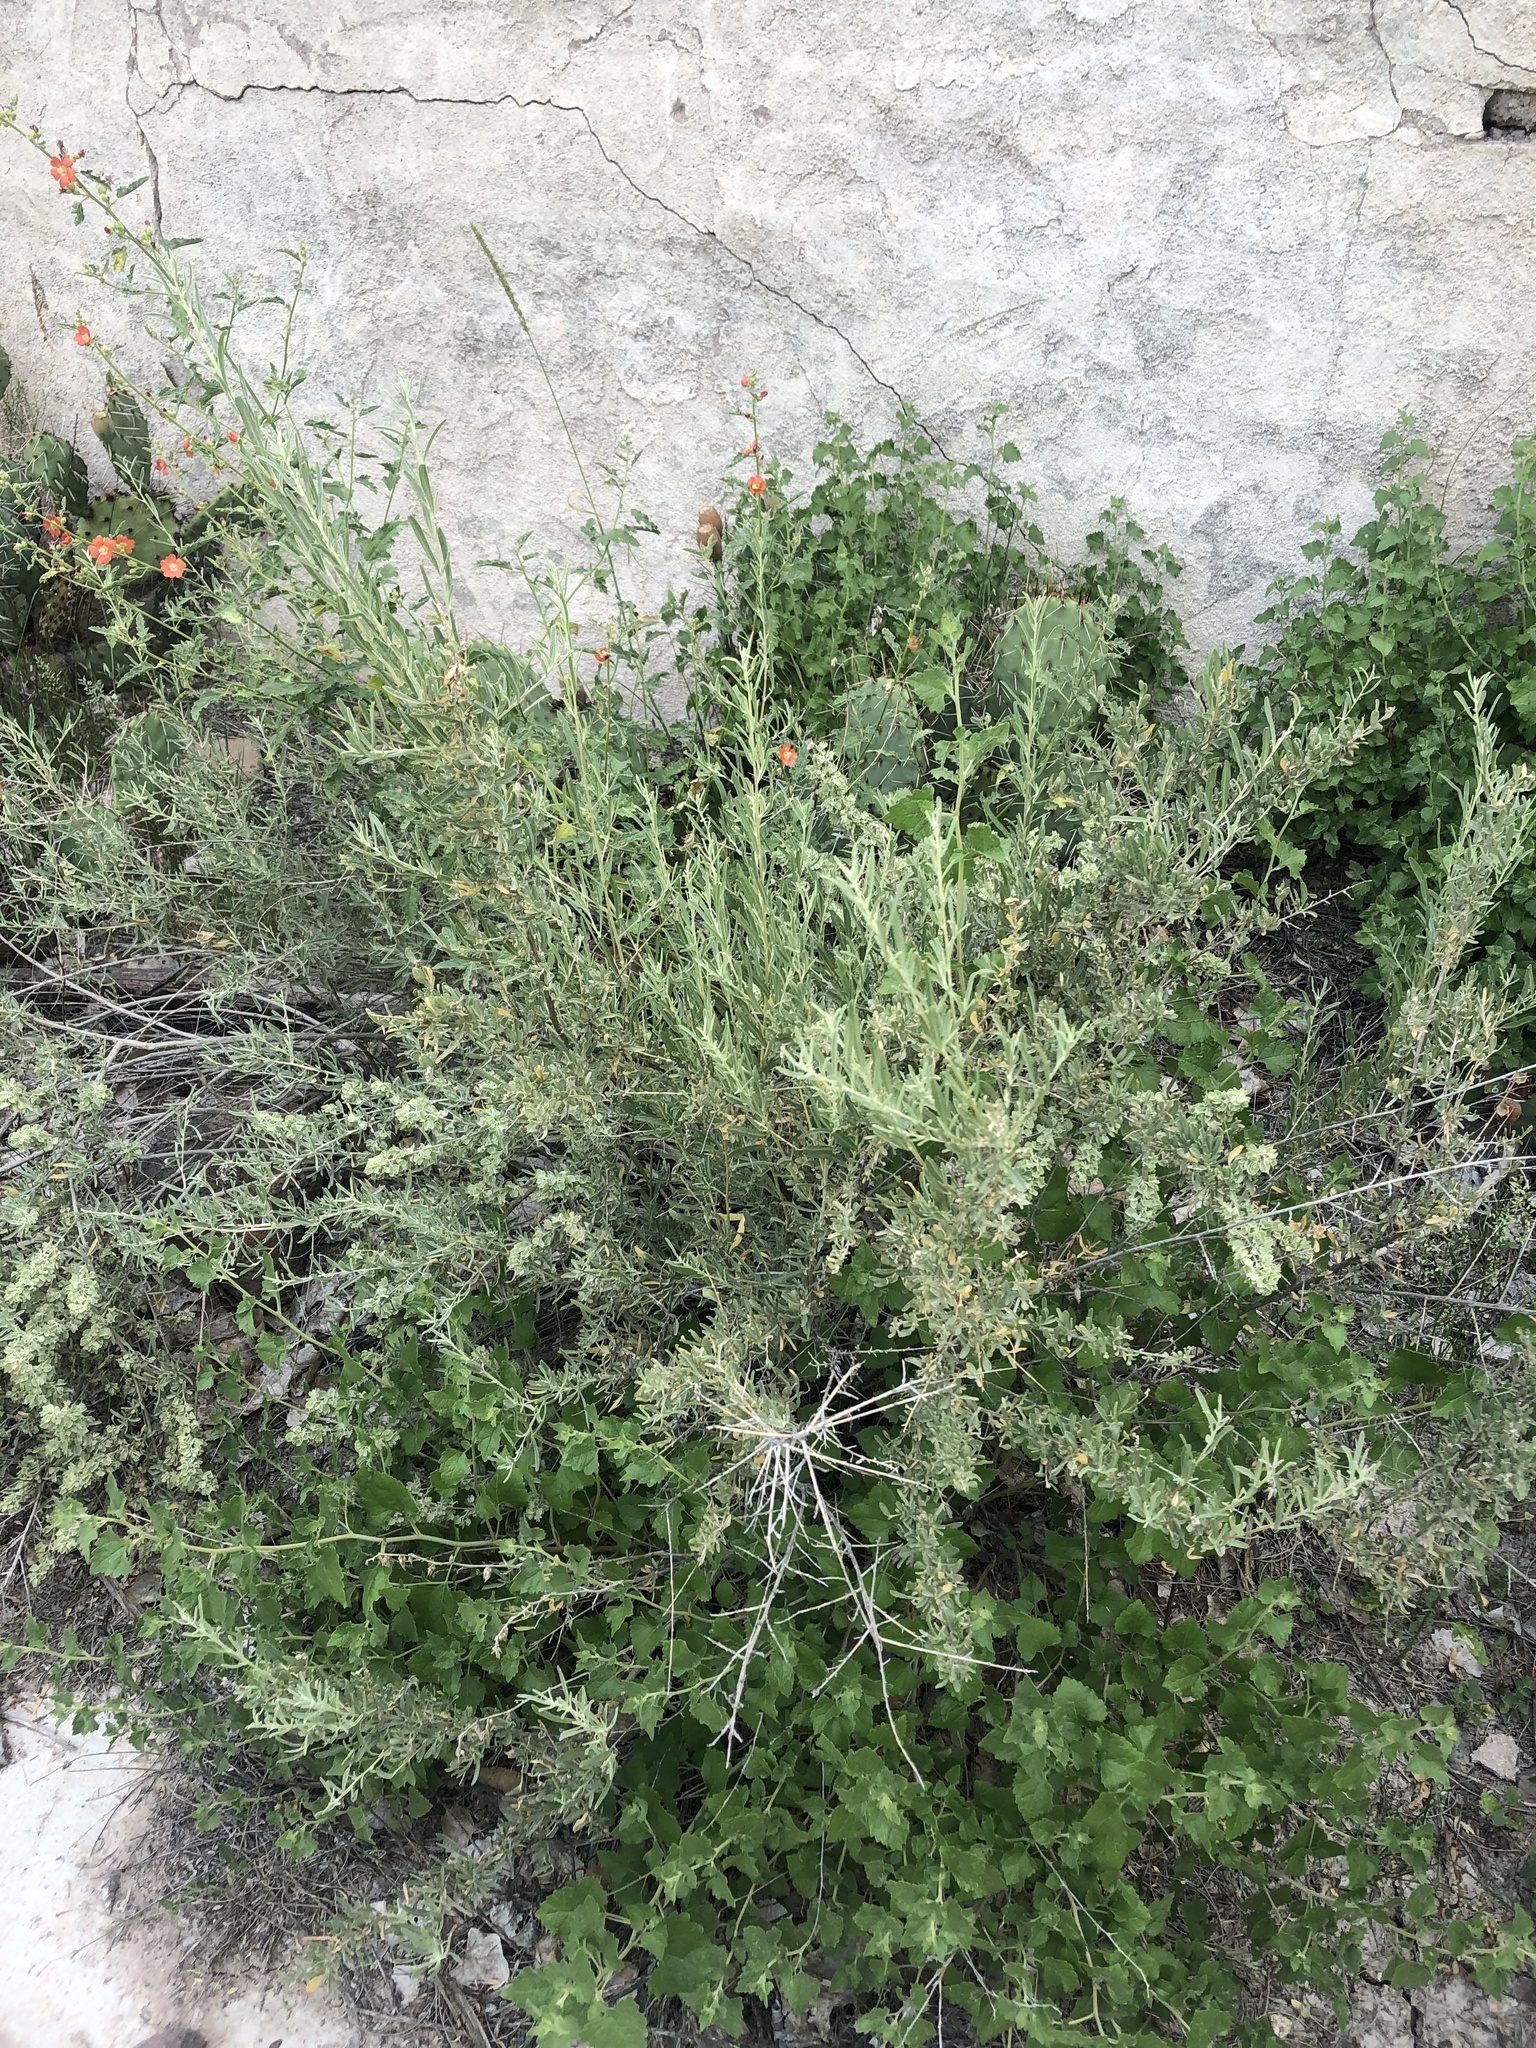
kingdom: Plantae
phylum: Tracheophyta
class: Magnoliopsida
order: Caryophyllales
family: Amaranthaceae
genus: Atriplex
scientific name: Atriplex canescens
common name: Four-wing saltbush
